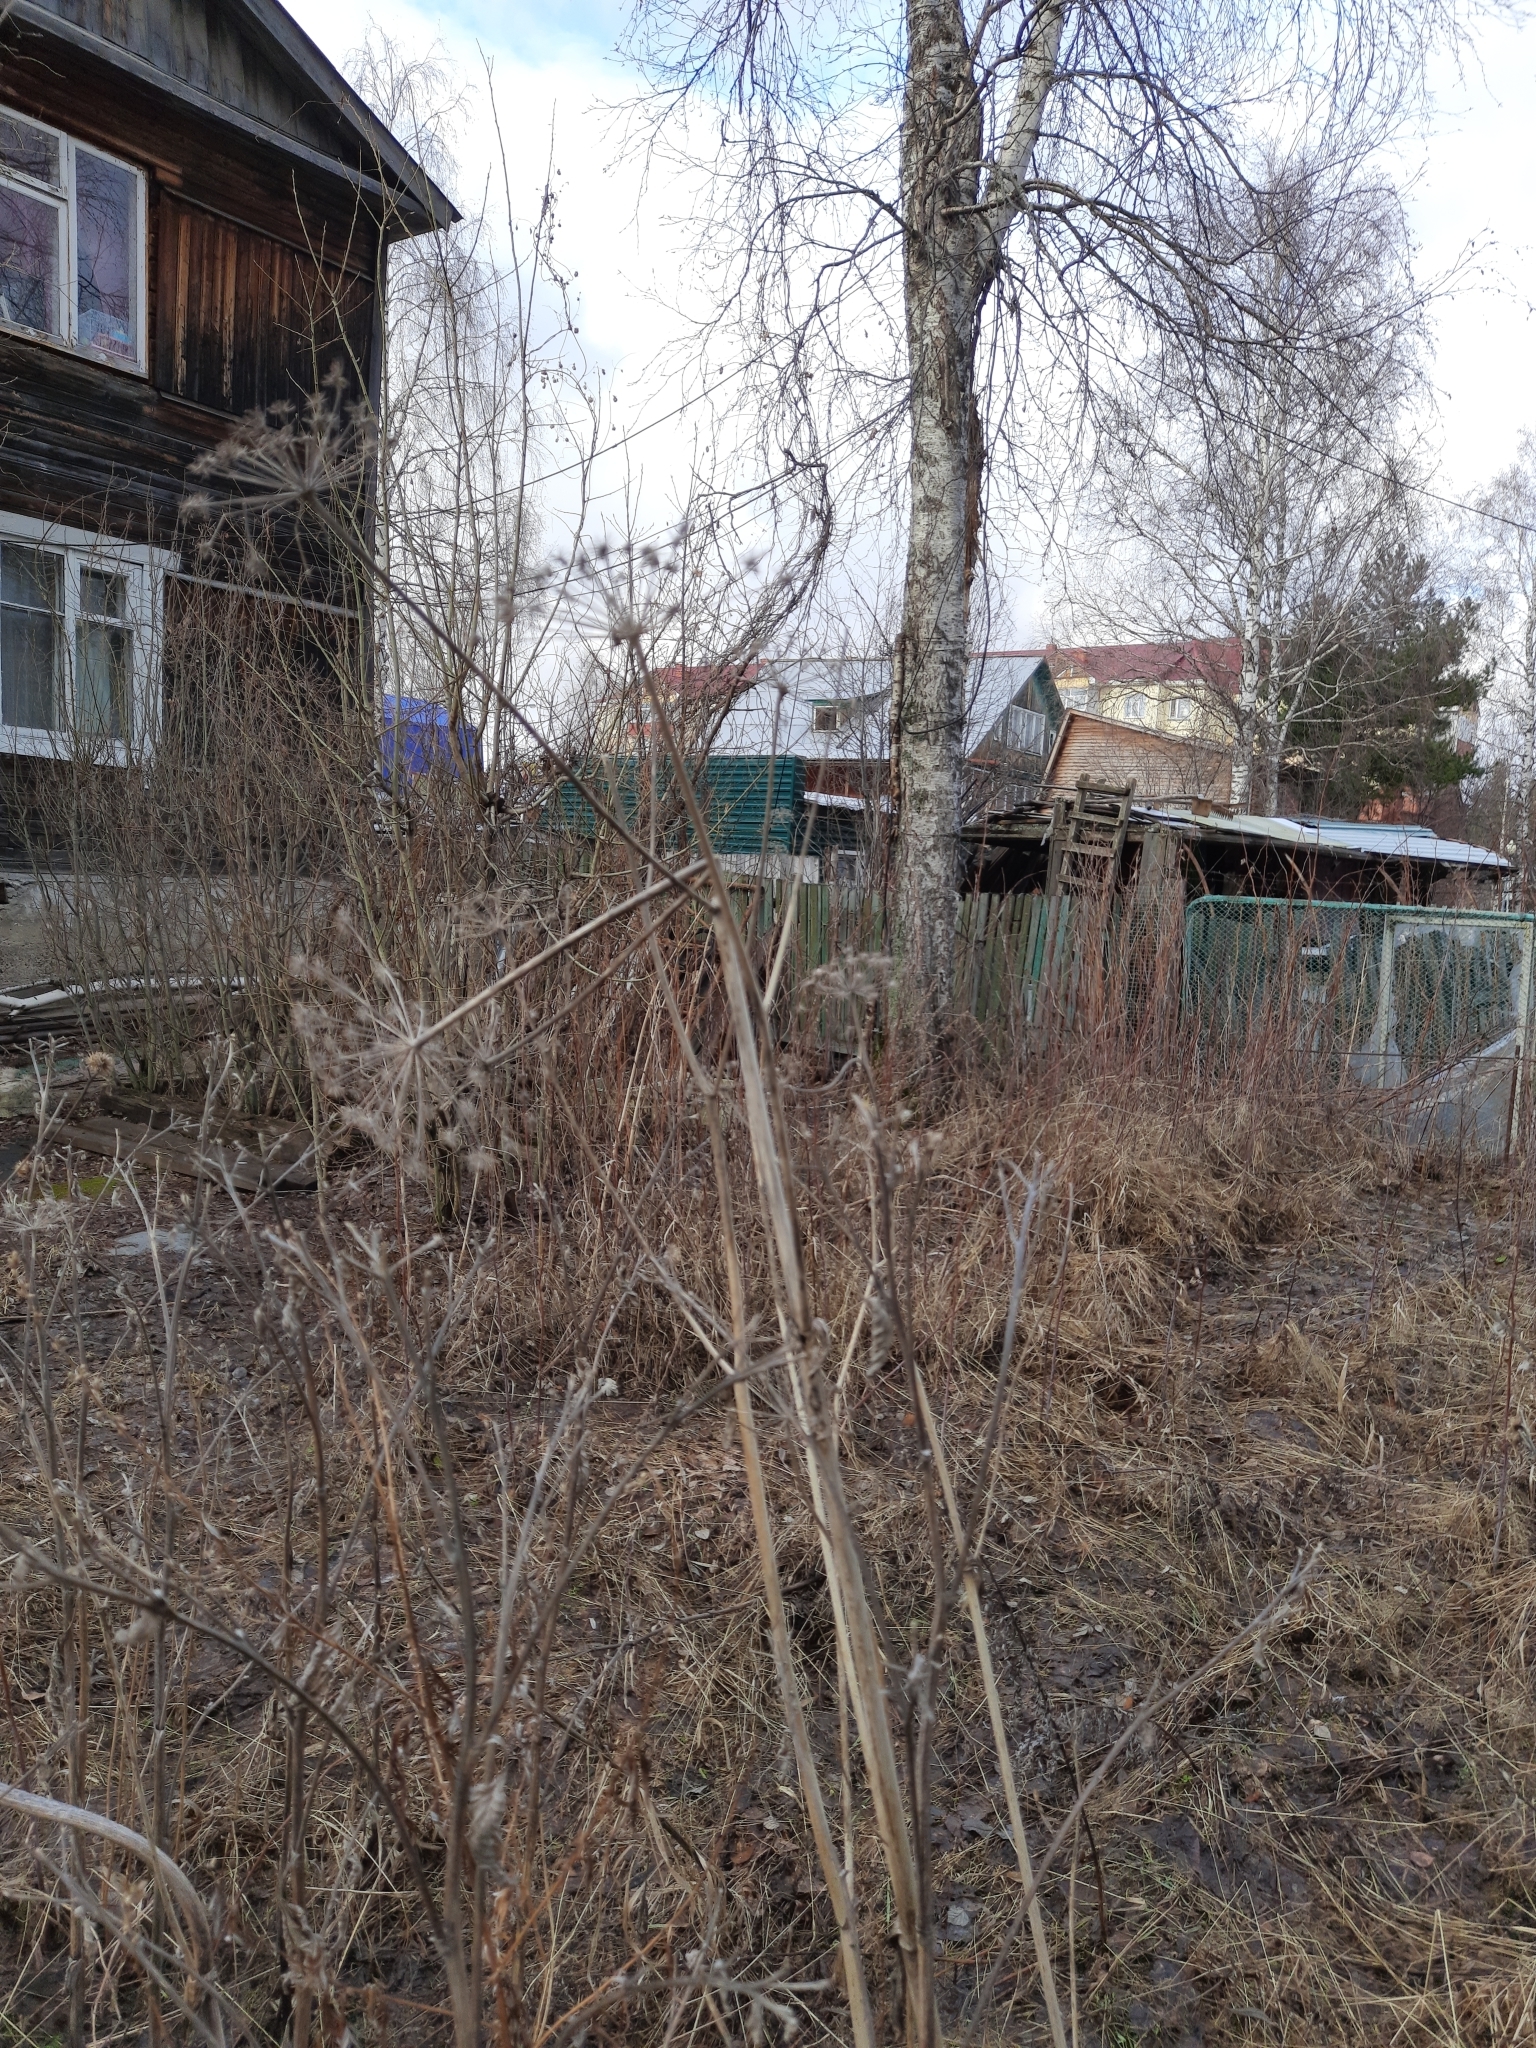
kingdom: Plantae
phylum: Tracheophyta
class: Magnoliopsida
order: Apiales
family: Apiaceae
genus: Angelica
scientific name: Angelica sylvestris
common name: Wild angelica
